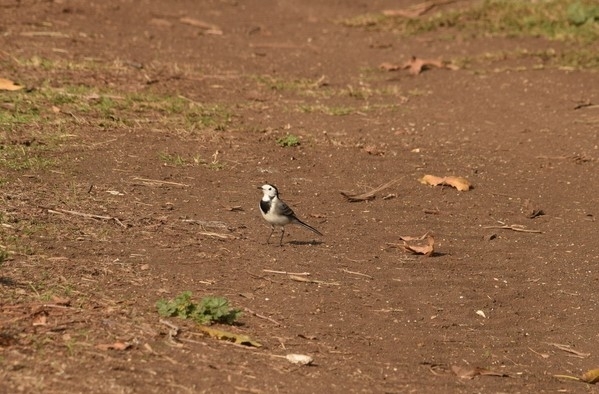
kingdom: Animalia
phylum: Chordata
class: Aves
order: Passeriformes
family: Motacillidae
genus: Motacilla
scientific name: Motacilla alba
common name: White wagtail
